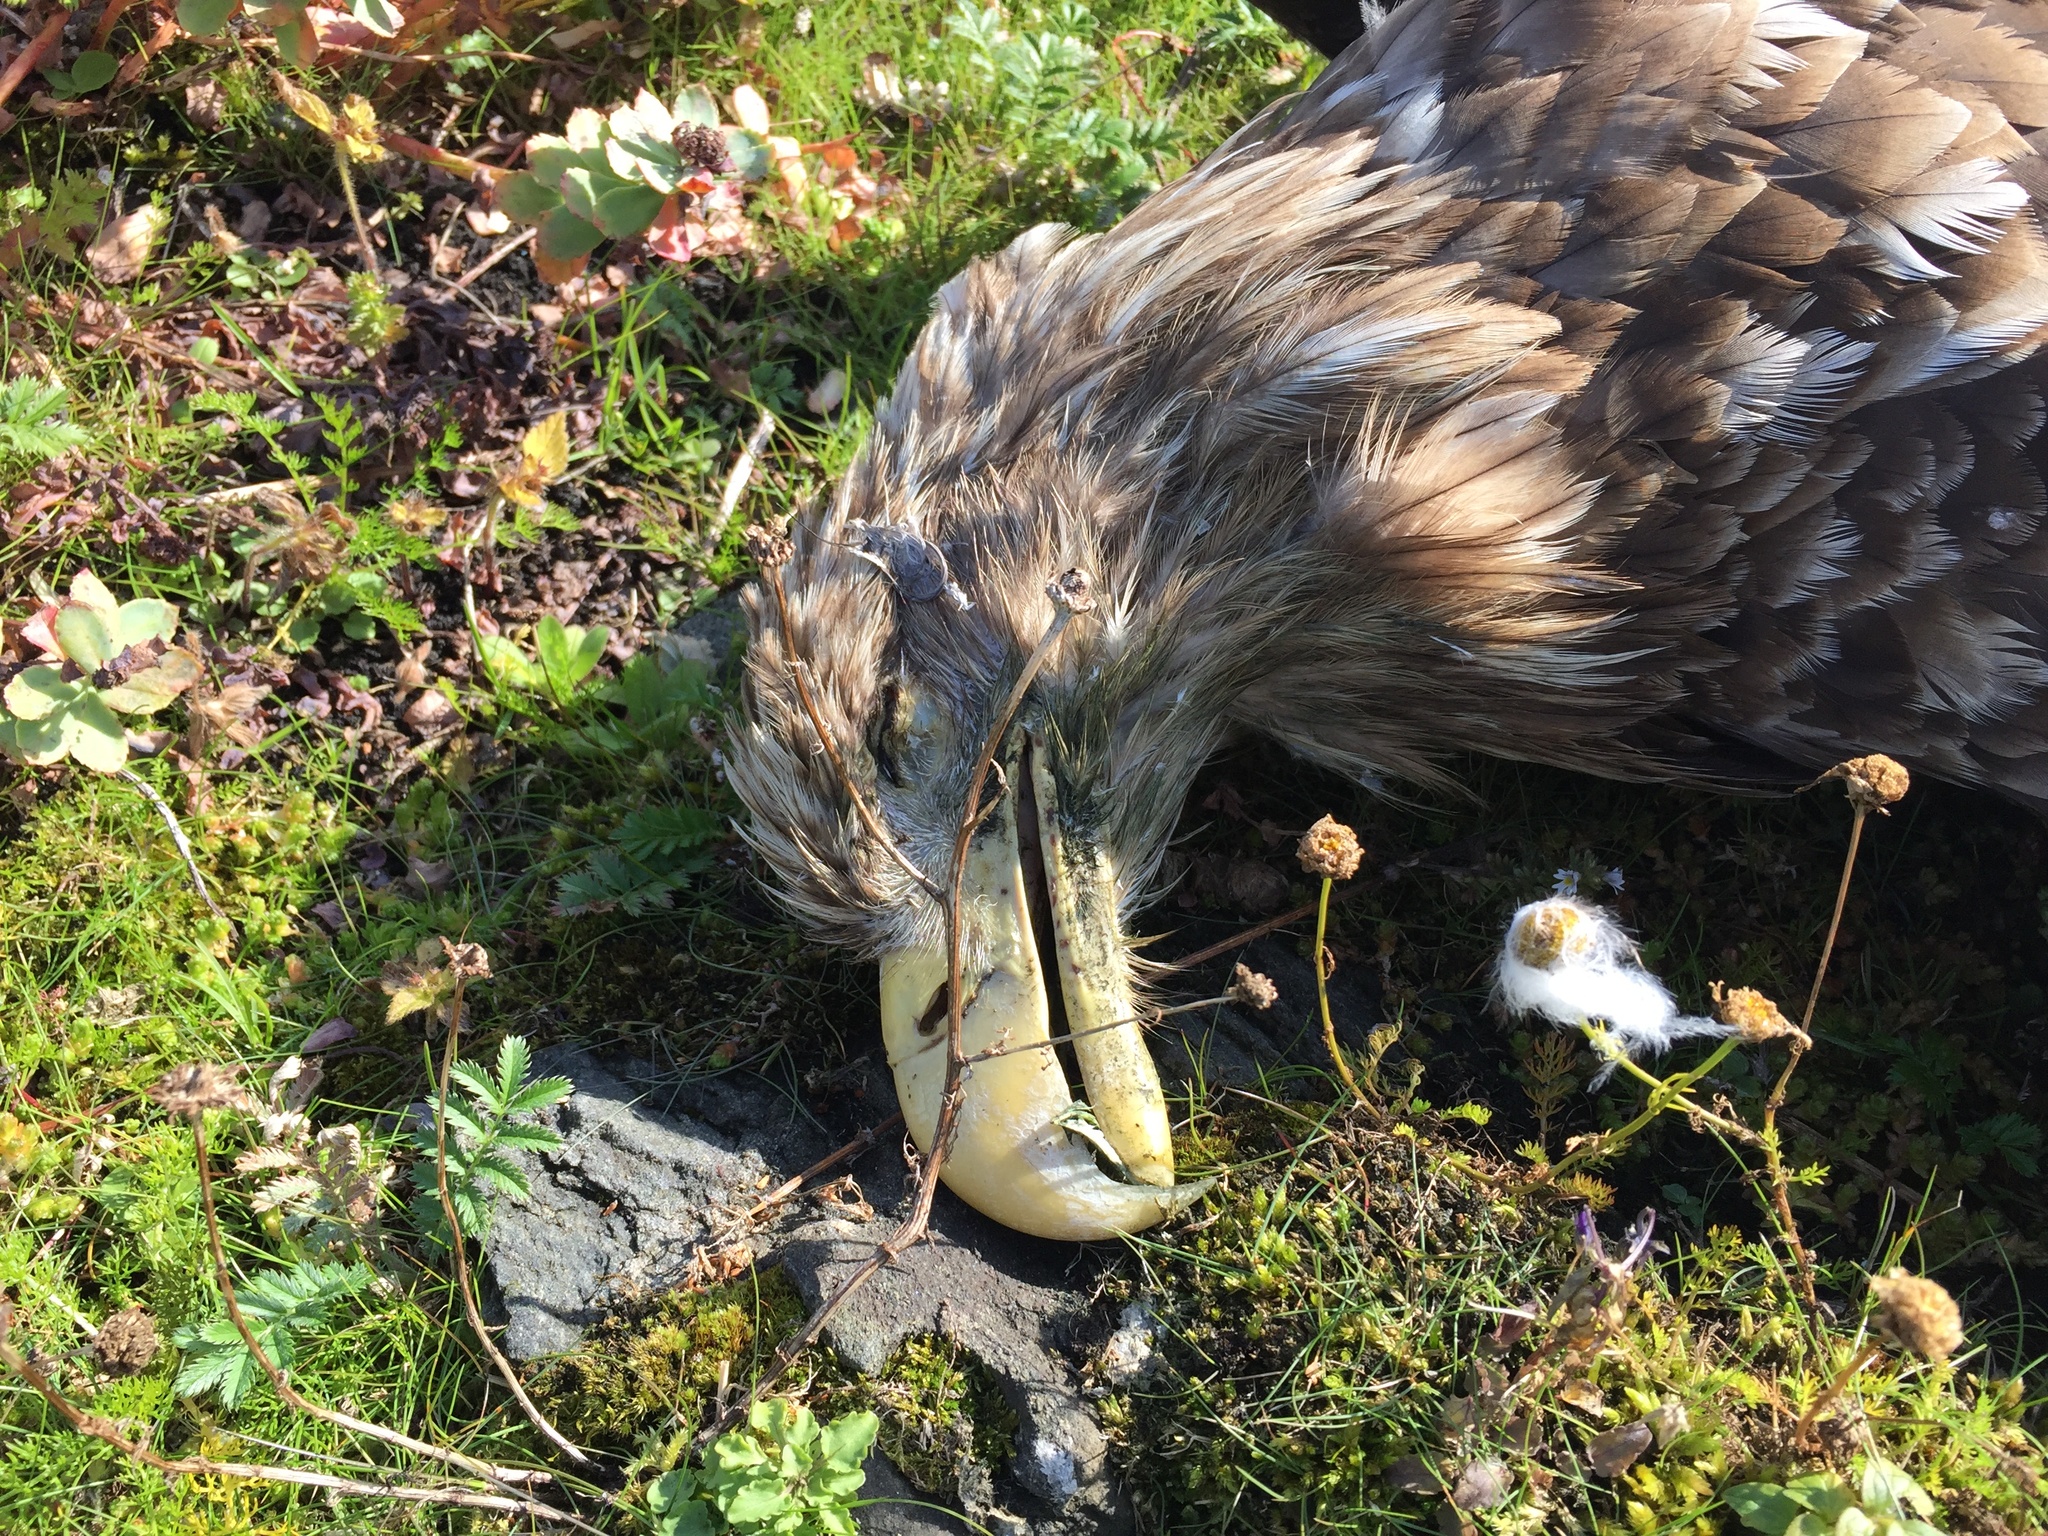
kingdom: Animalia
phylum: Chordata
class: Aves
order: Accipitriformes
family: Accipitridae
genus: Haliaeetus
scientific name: Haliaeetus albicilla
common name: White-tailed eagle
